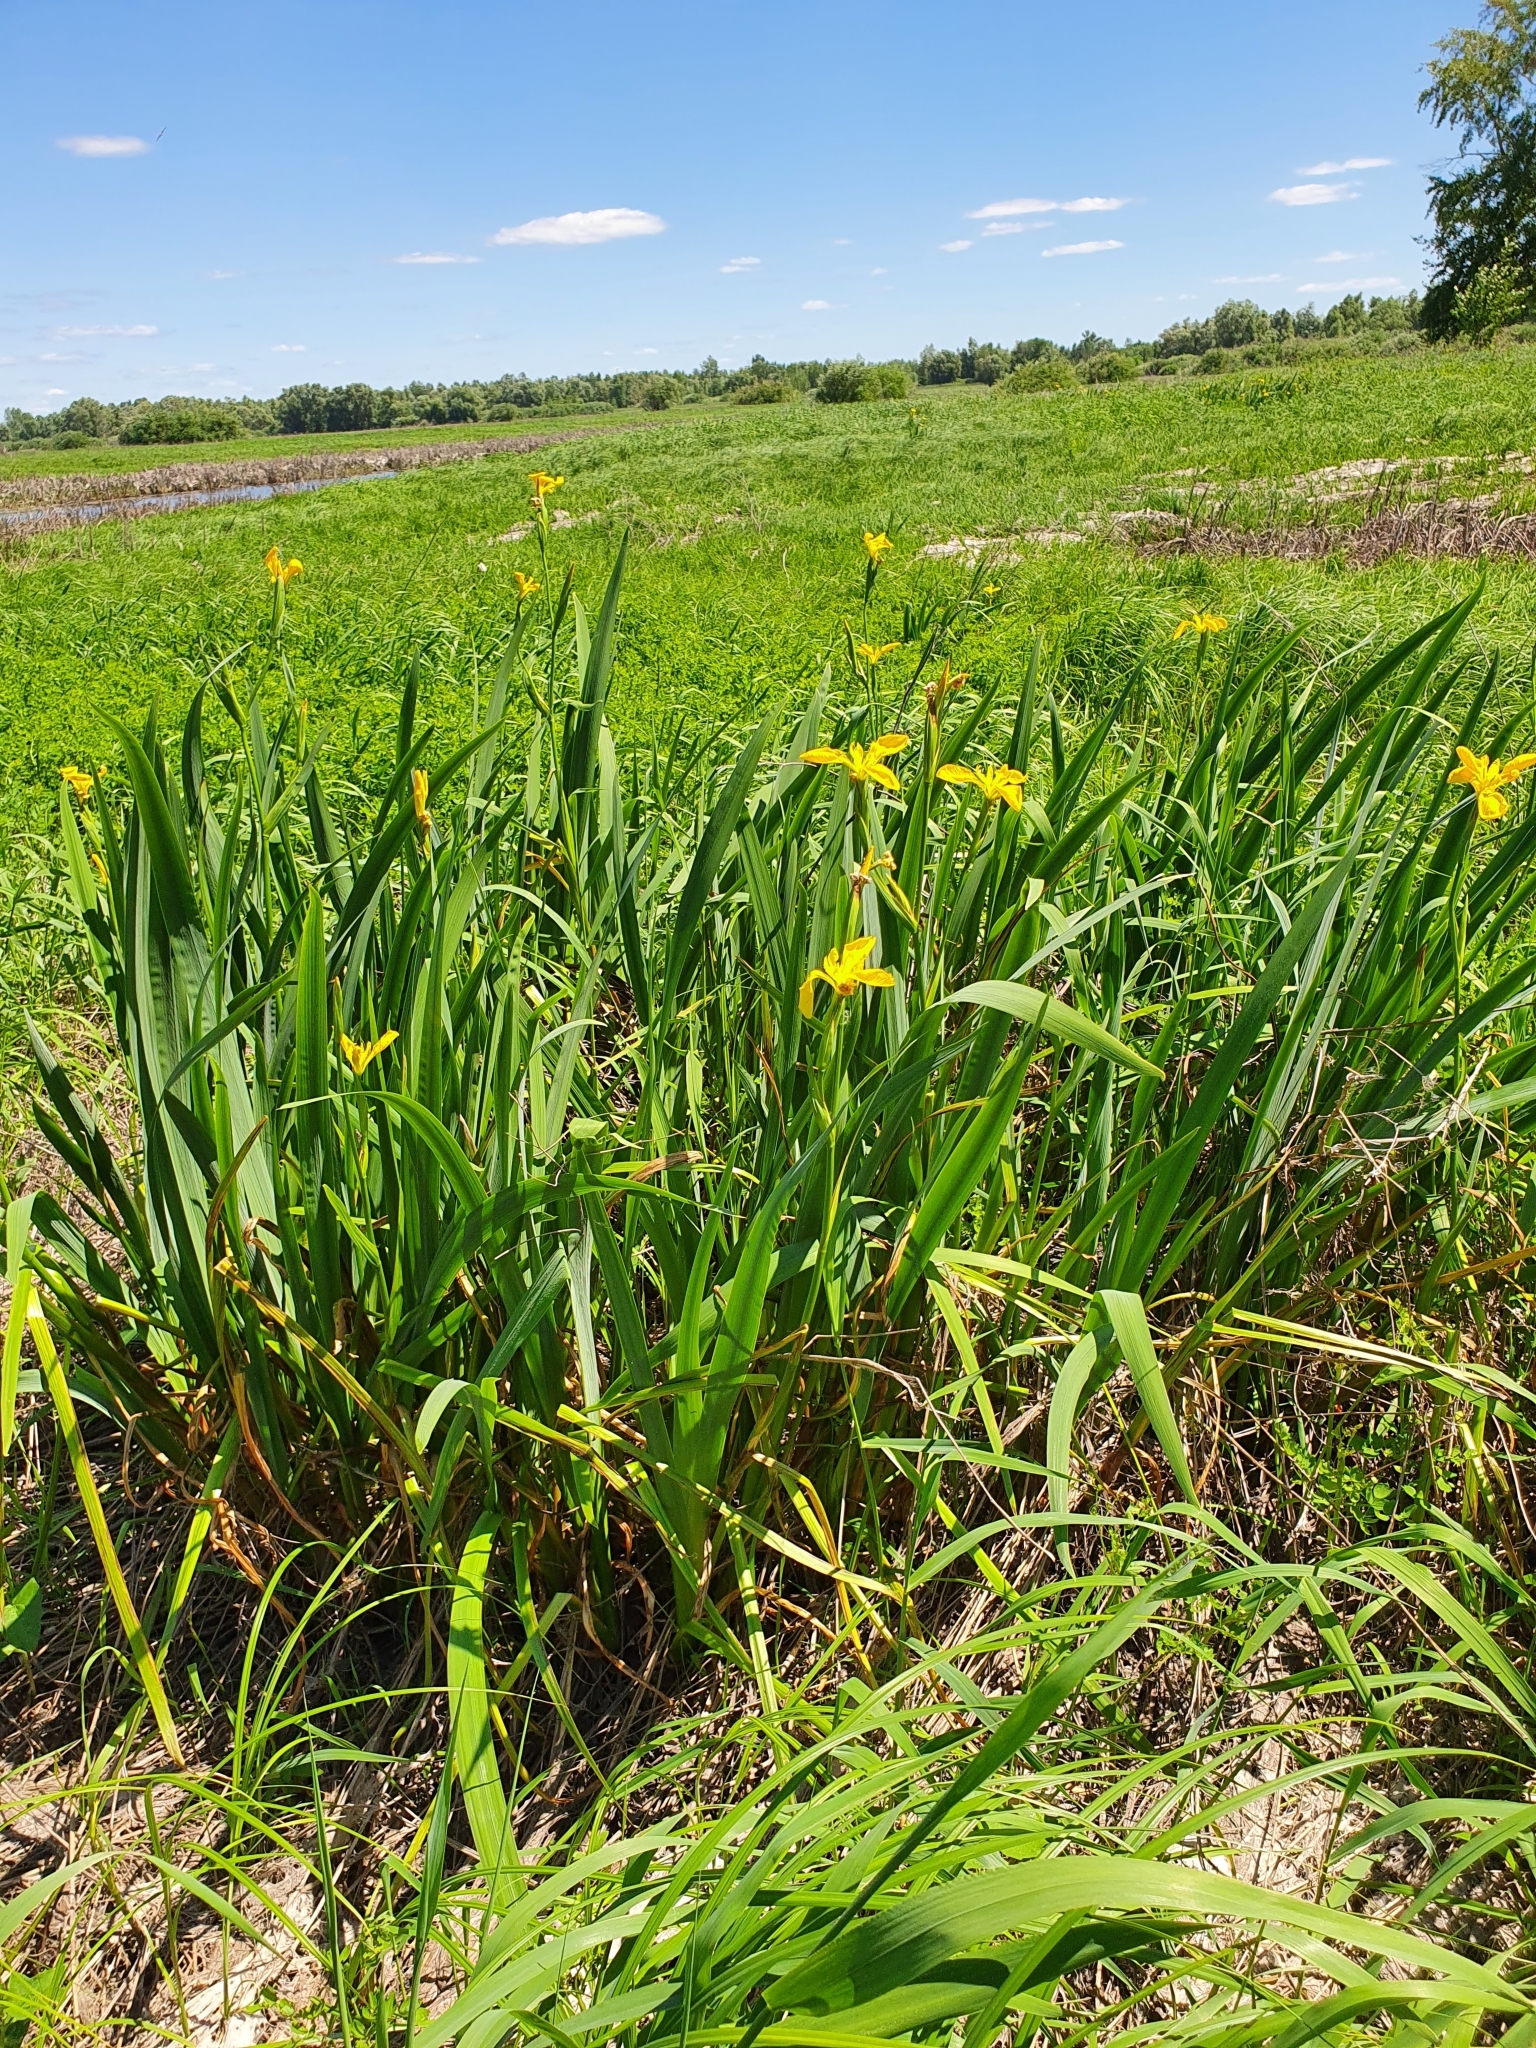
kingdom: Plantae
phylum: Tracheophyta
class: Liliopsida
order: Asparagales
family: Iridaceae
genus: Iris
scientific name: Iris pseudacorus
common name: Yellow flag
